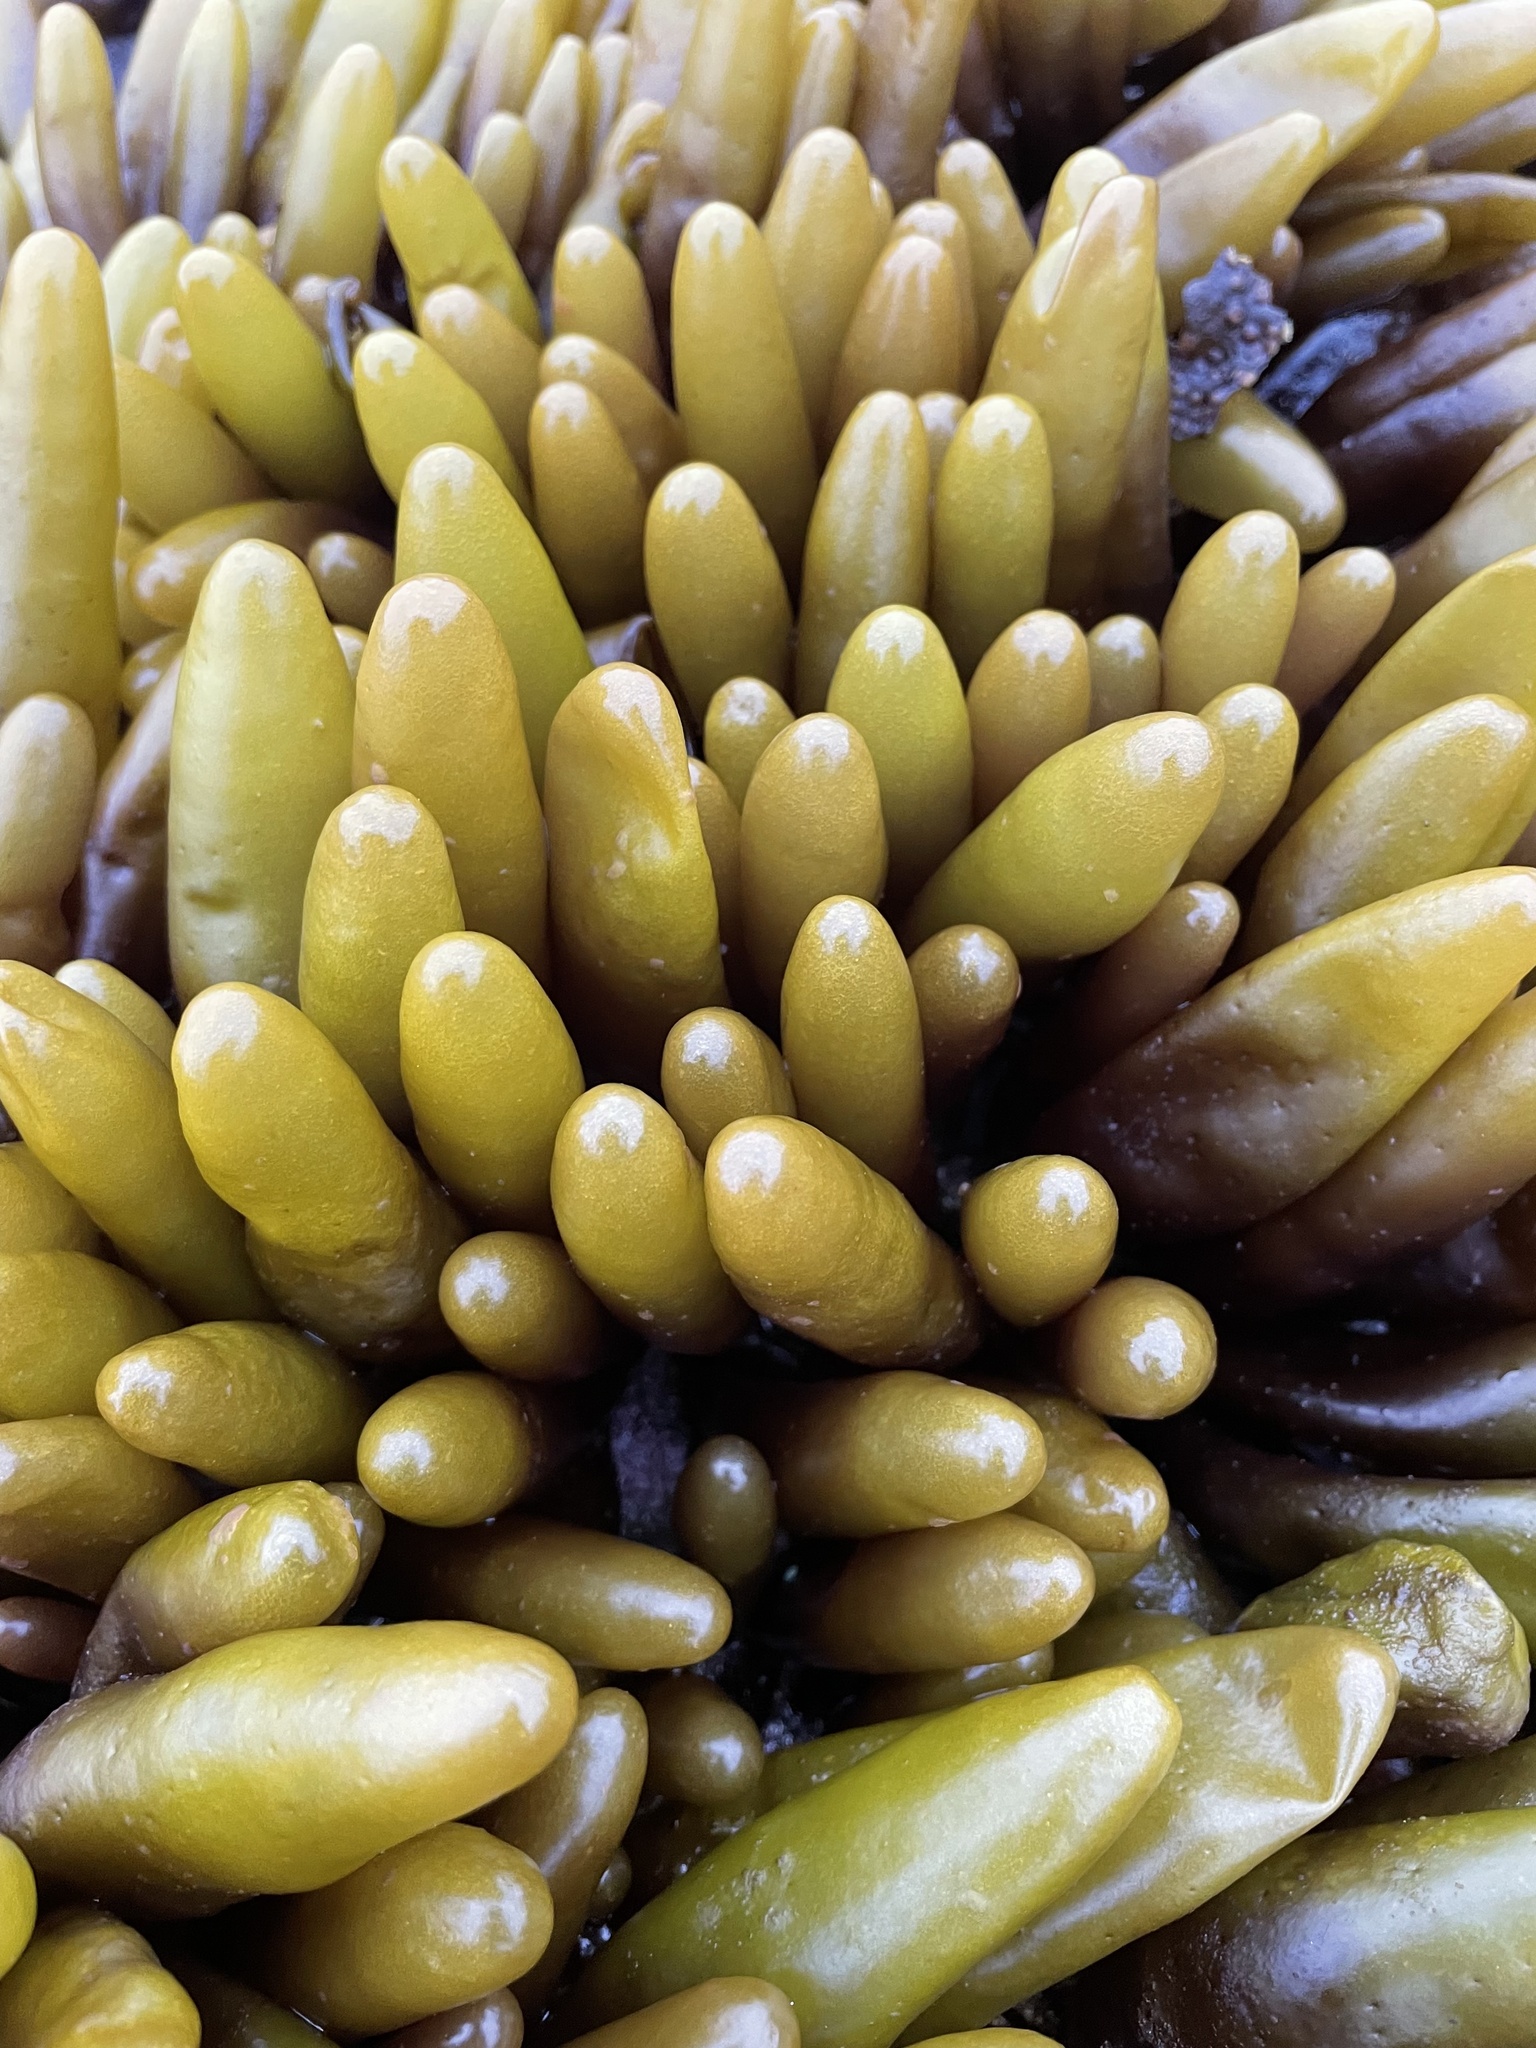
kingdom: Plantae
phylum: Rhodophyta
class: Florideophyceae
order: Palmariales
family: Palmariaceae
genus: Halosaccion
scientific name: Halosaccion glandiforme
